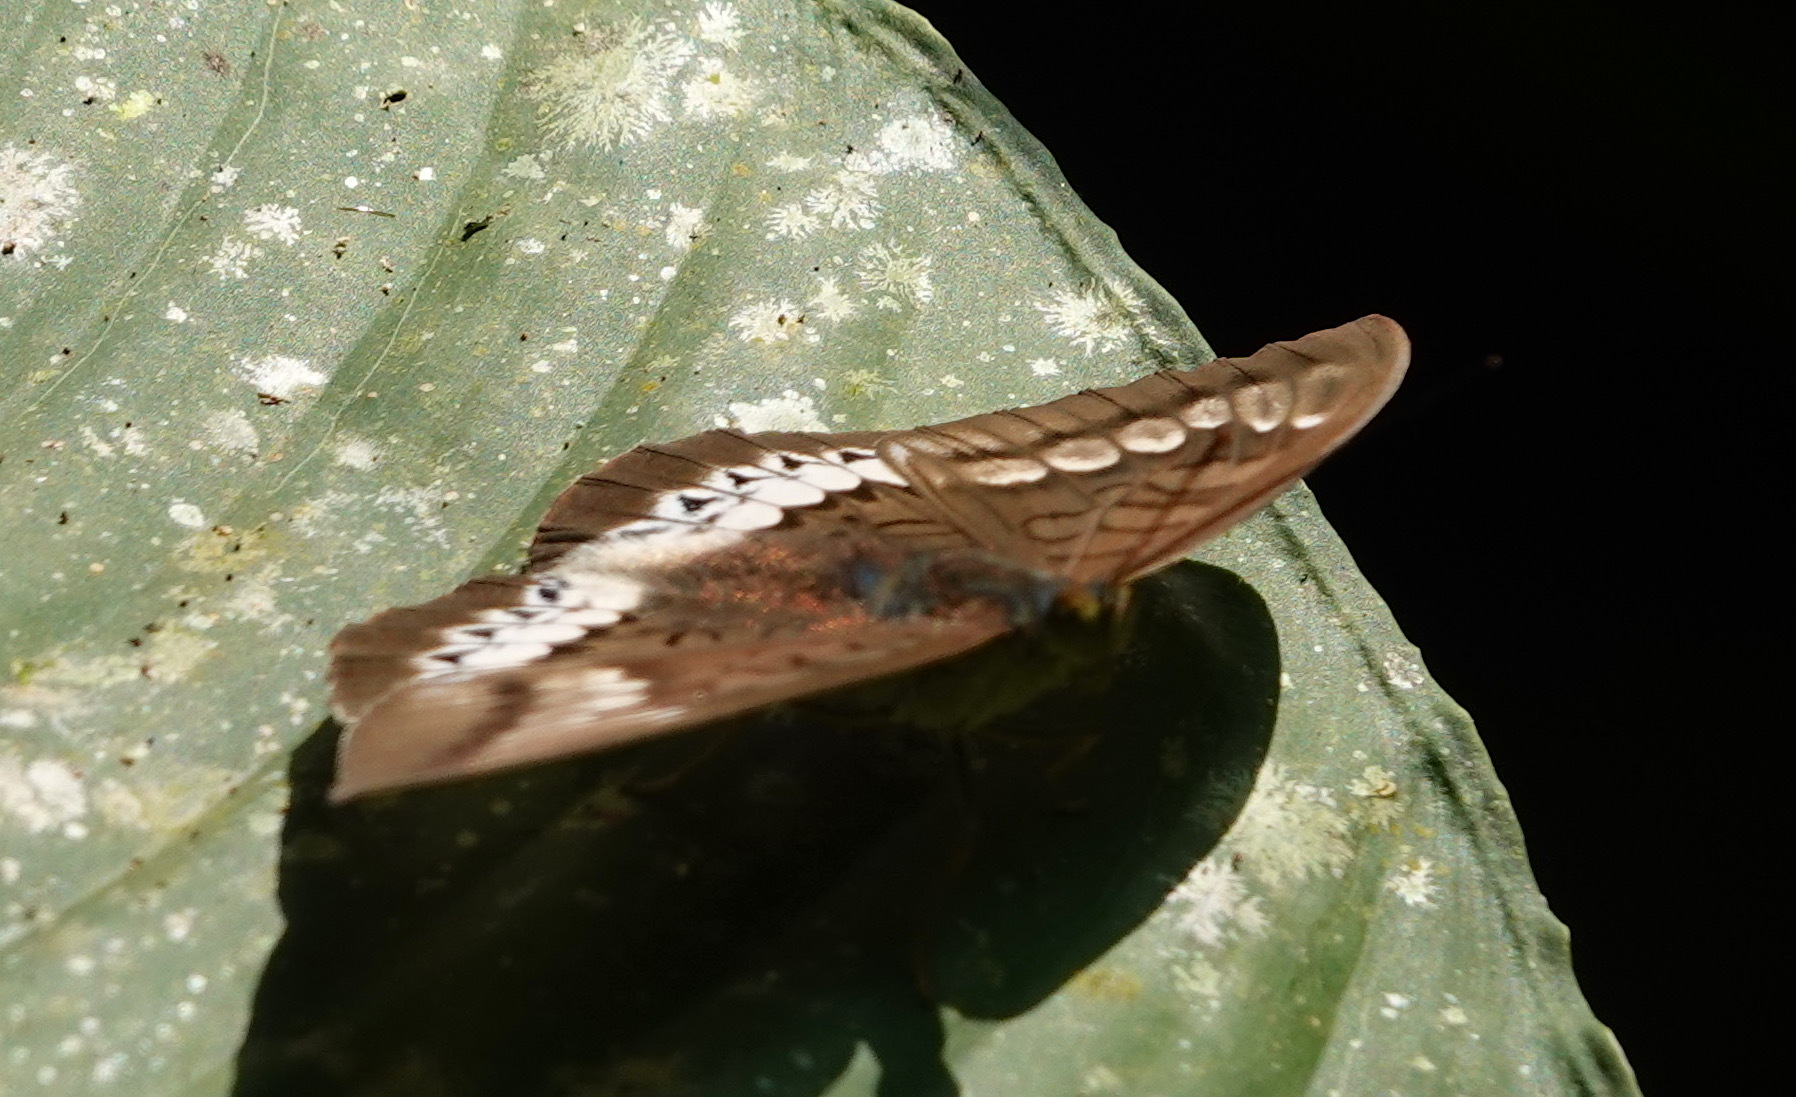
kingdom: Animalia
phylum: Arthropoda
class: Insecta
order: Lepidoptera
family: Nymphalidae
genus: Tanaecia
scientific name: Tanaecia trigerta
